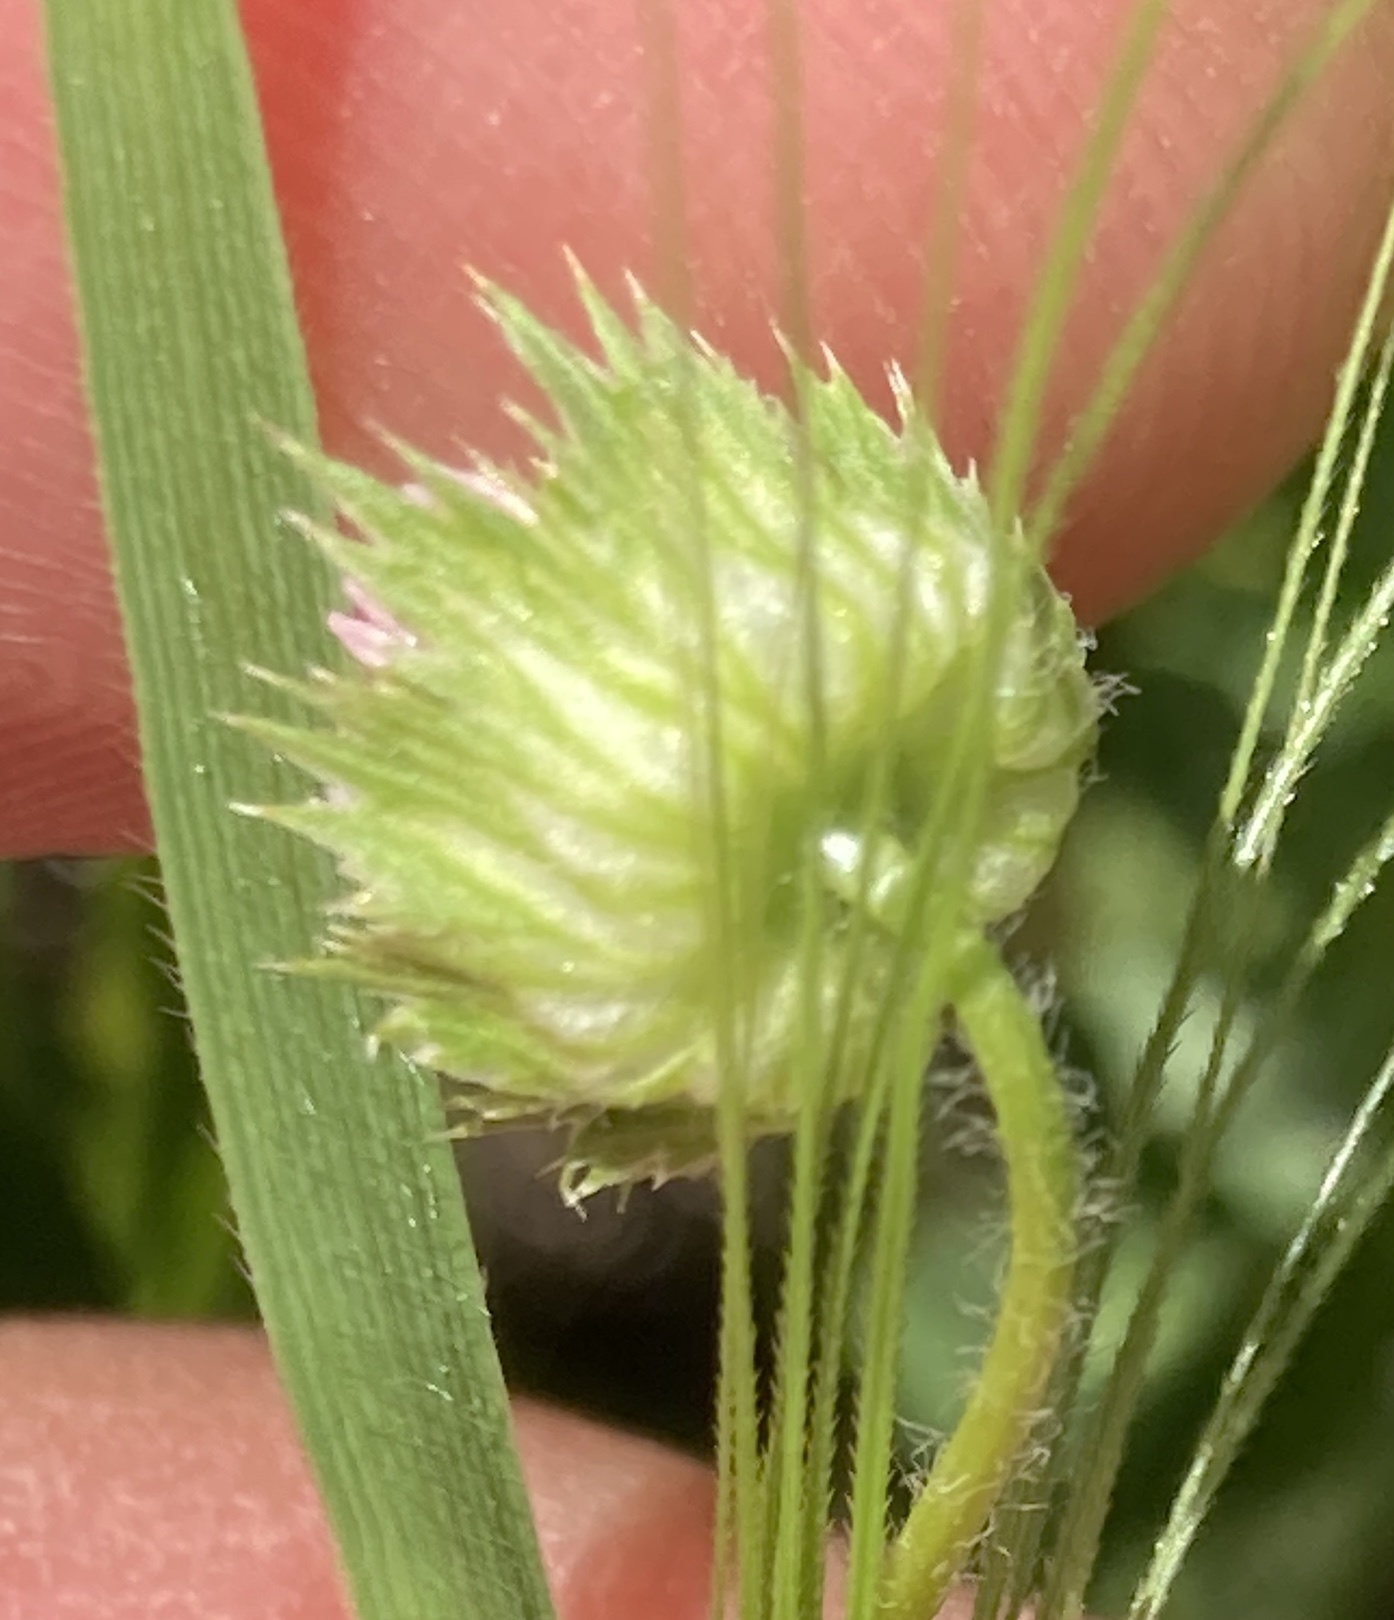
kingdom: Plantae
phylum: Tracheophyta
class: Magnoliopsida
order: Fabales
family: Fabaceae
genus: Trifolium
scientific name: Trifolium microdon
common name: Thimble clover
